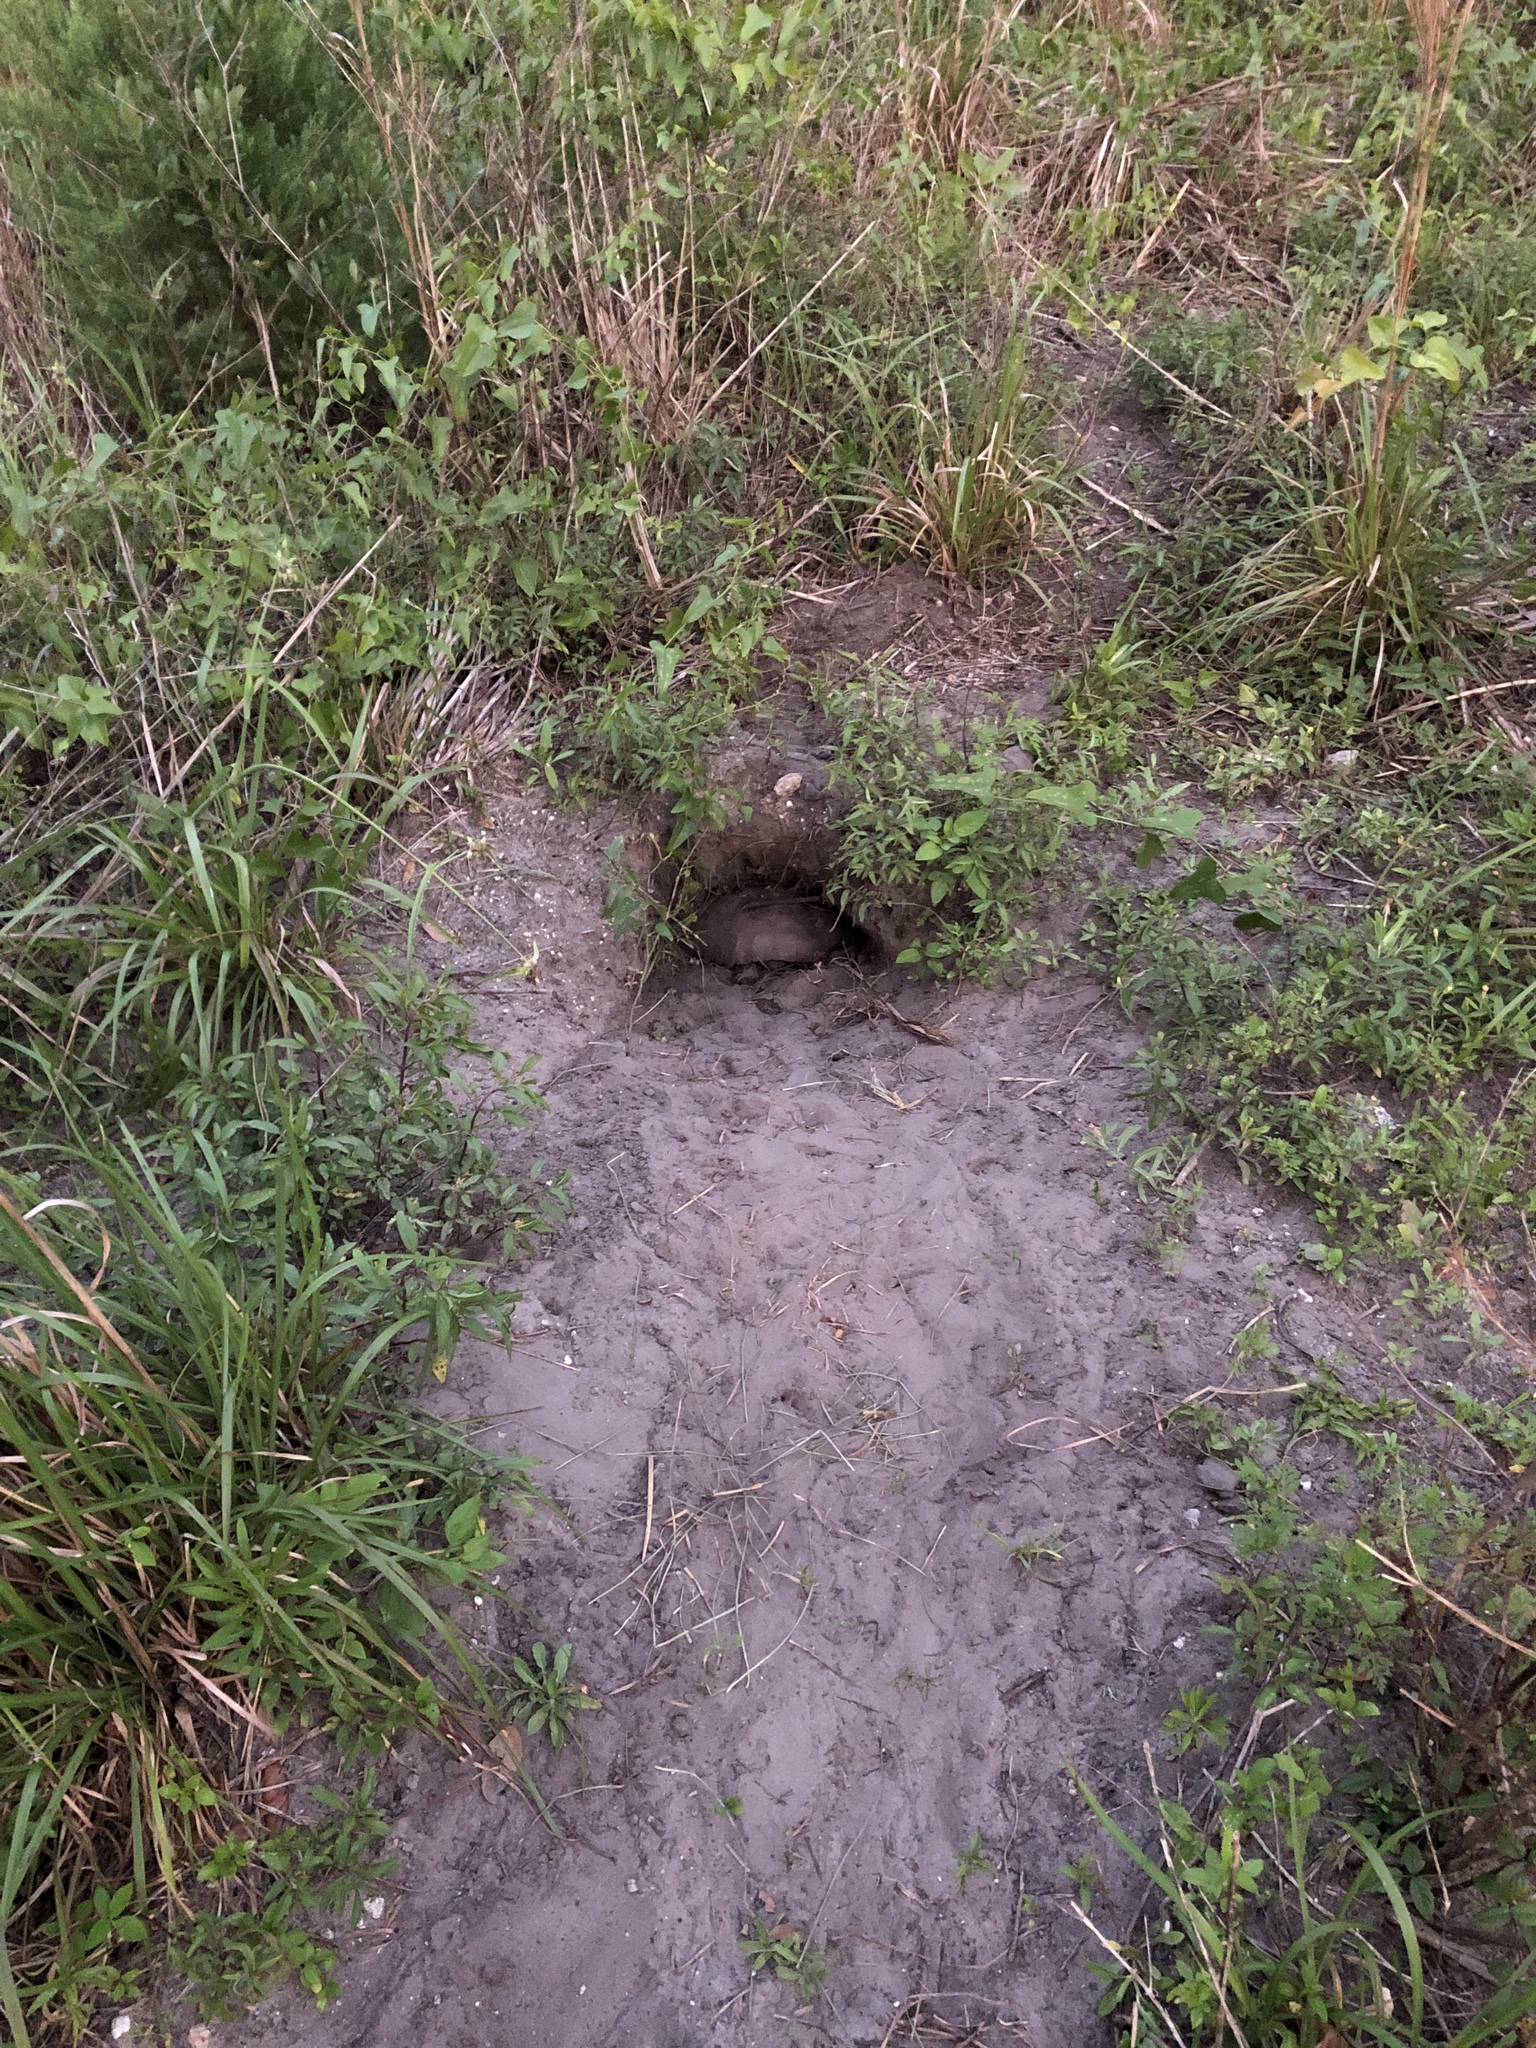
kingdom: Animalia
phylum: Chordata
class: Testudines
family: Testudinidae
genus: Gopherus
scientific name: Gopherus polyphemus
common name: Florida gopher tortoise
